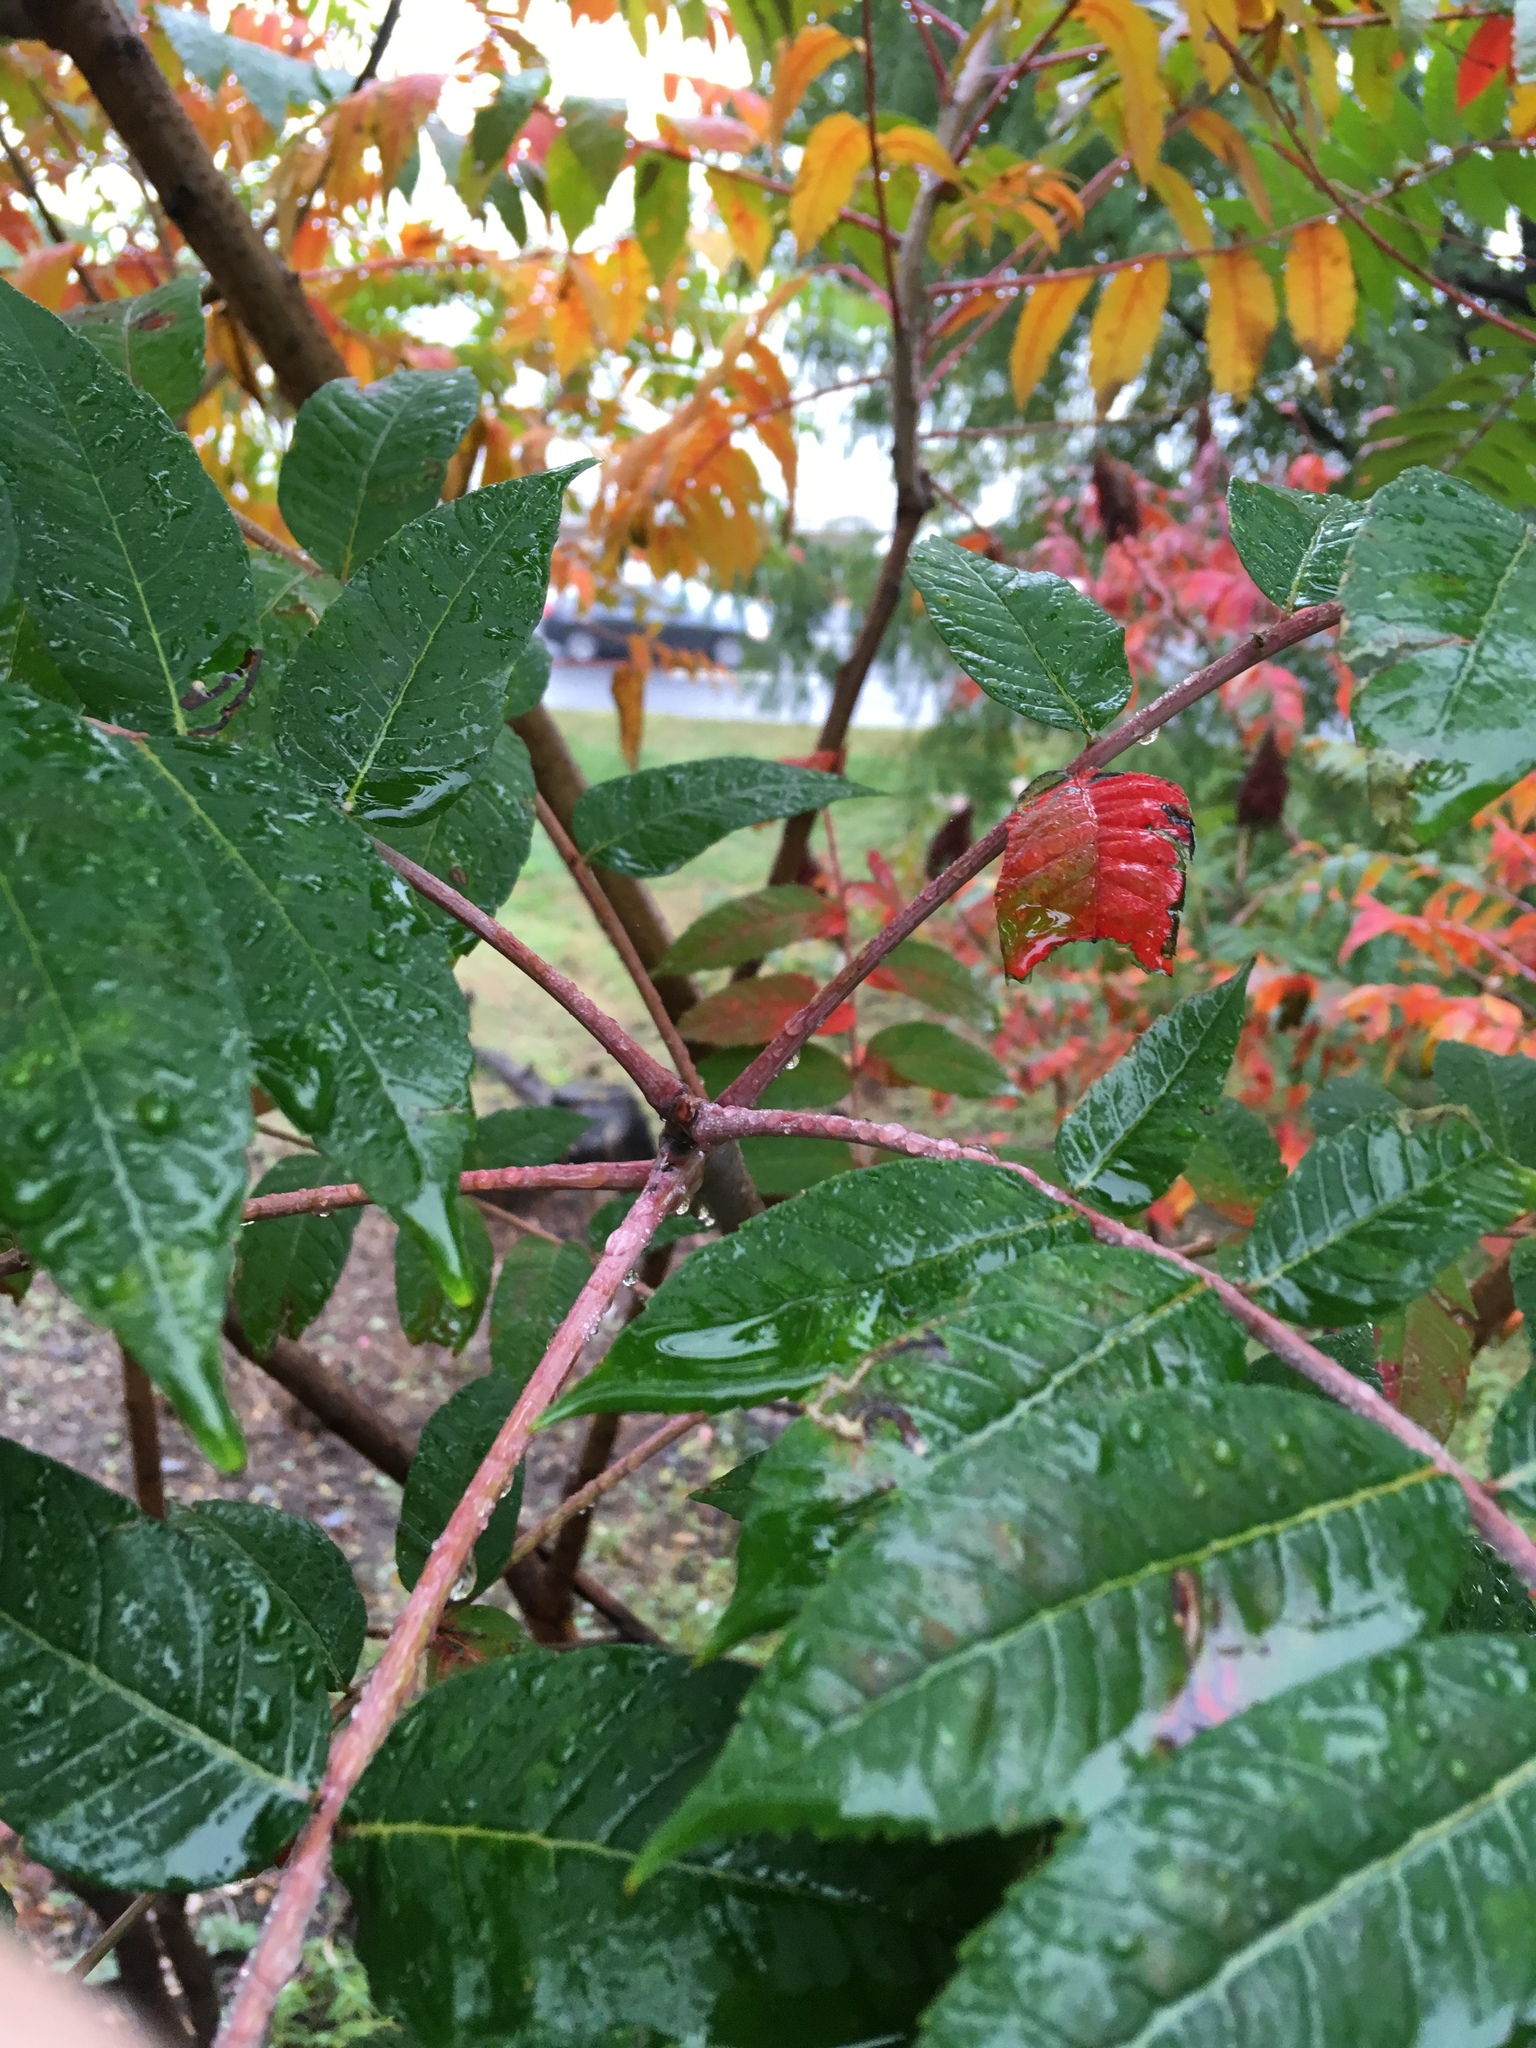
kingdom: Plantae
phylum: Tracheophyta
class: Magnoliopsida
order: Sapindales
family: Anacardiaceae
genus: Rhus
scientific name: Rhus glabra
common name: Scarlet sumac
